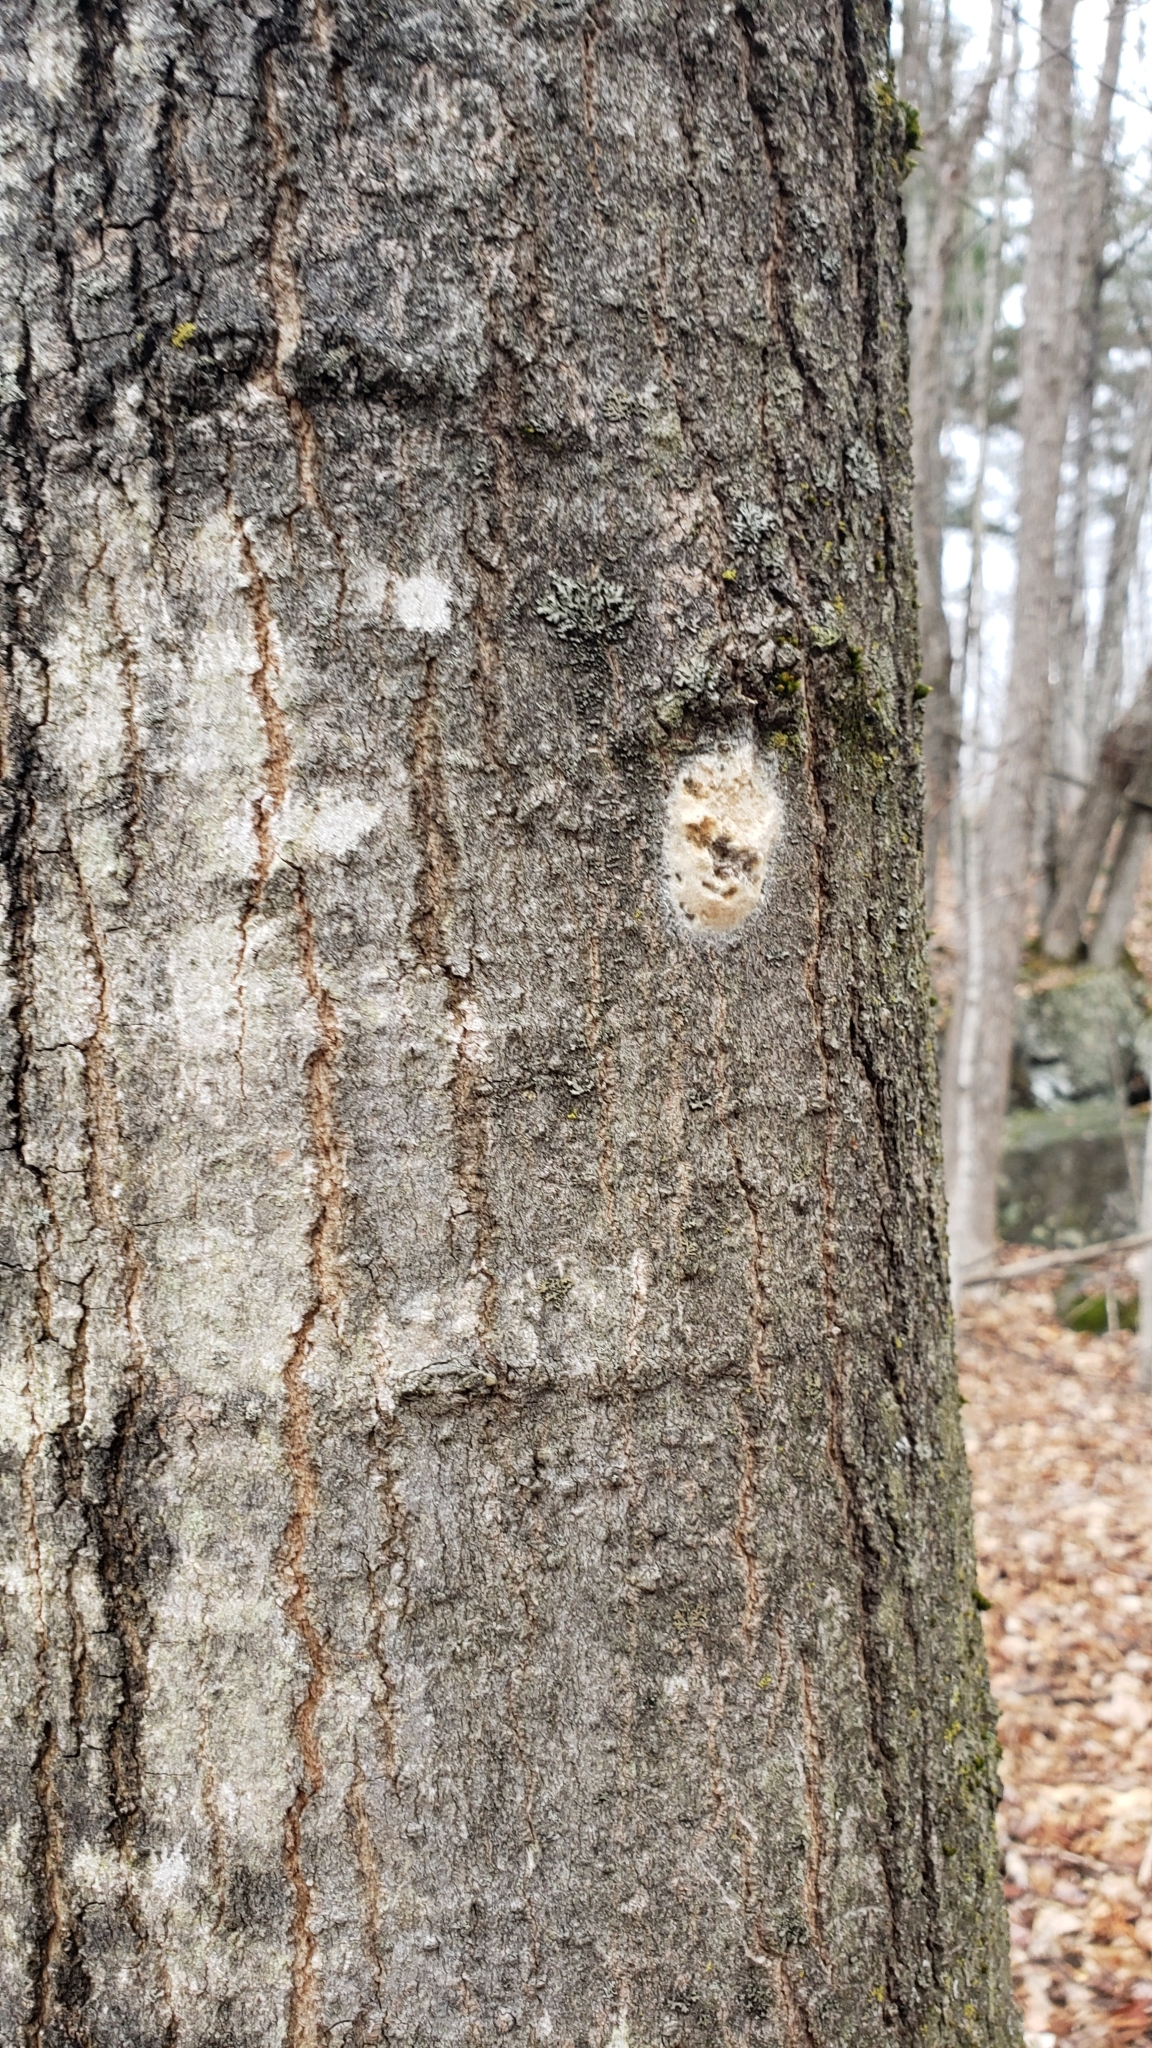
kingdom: Animalia
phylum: Arthropoda
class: Insecta
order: Lepidoptera
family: Erebidae
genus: Lymantria
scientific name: Lymantria dispar
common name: Gypsy moth
